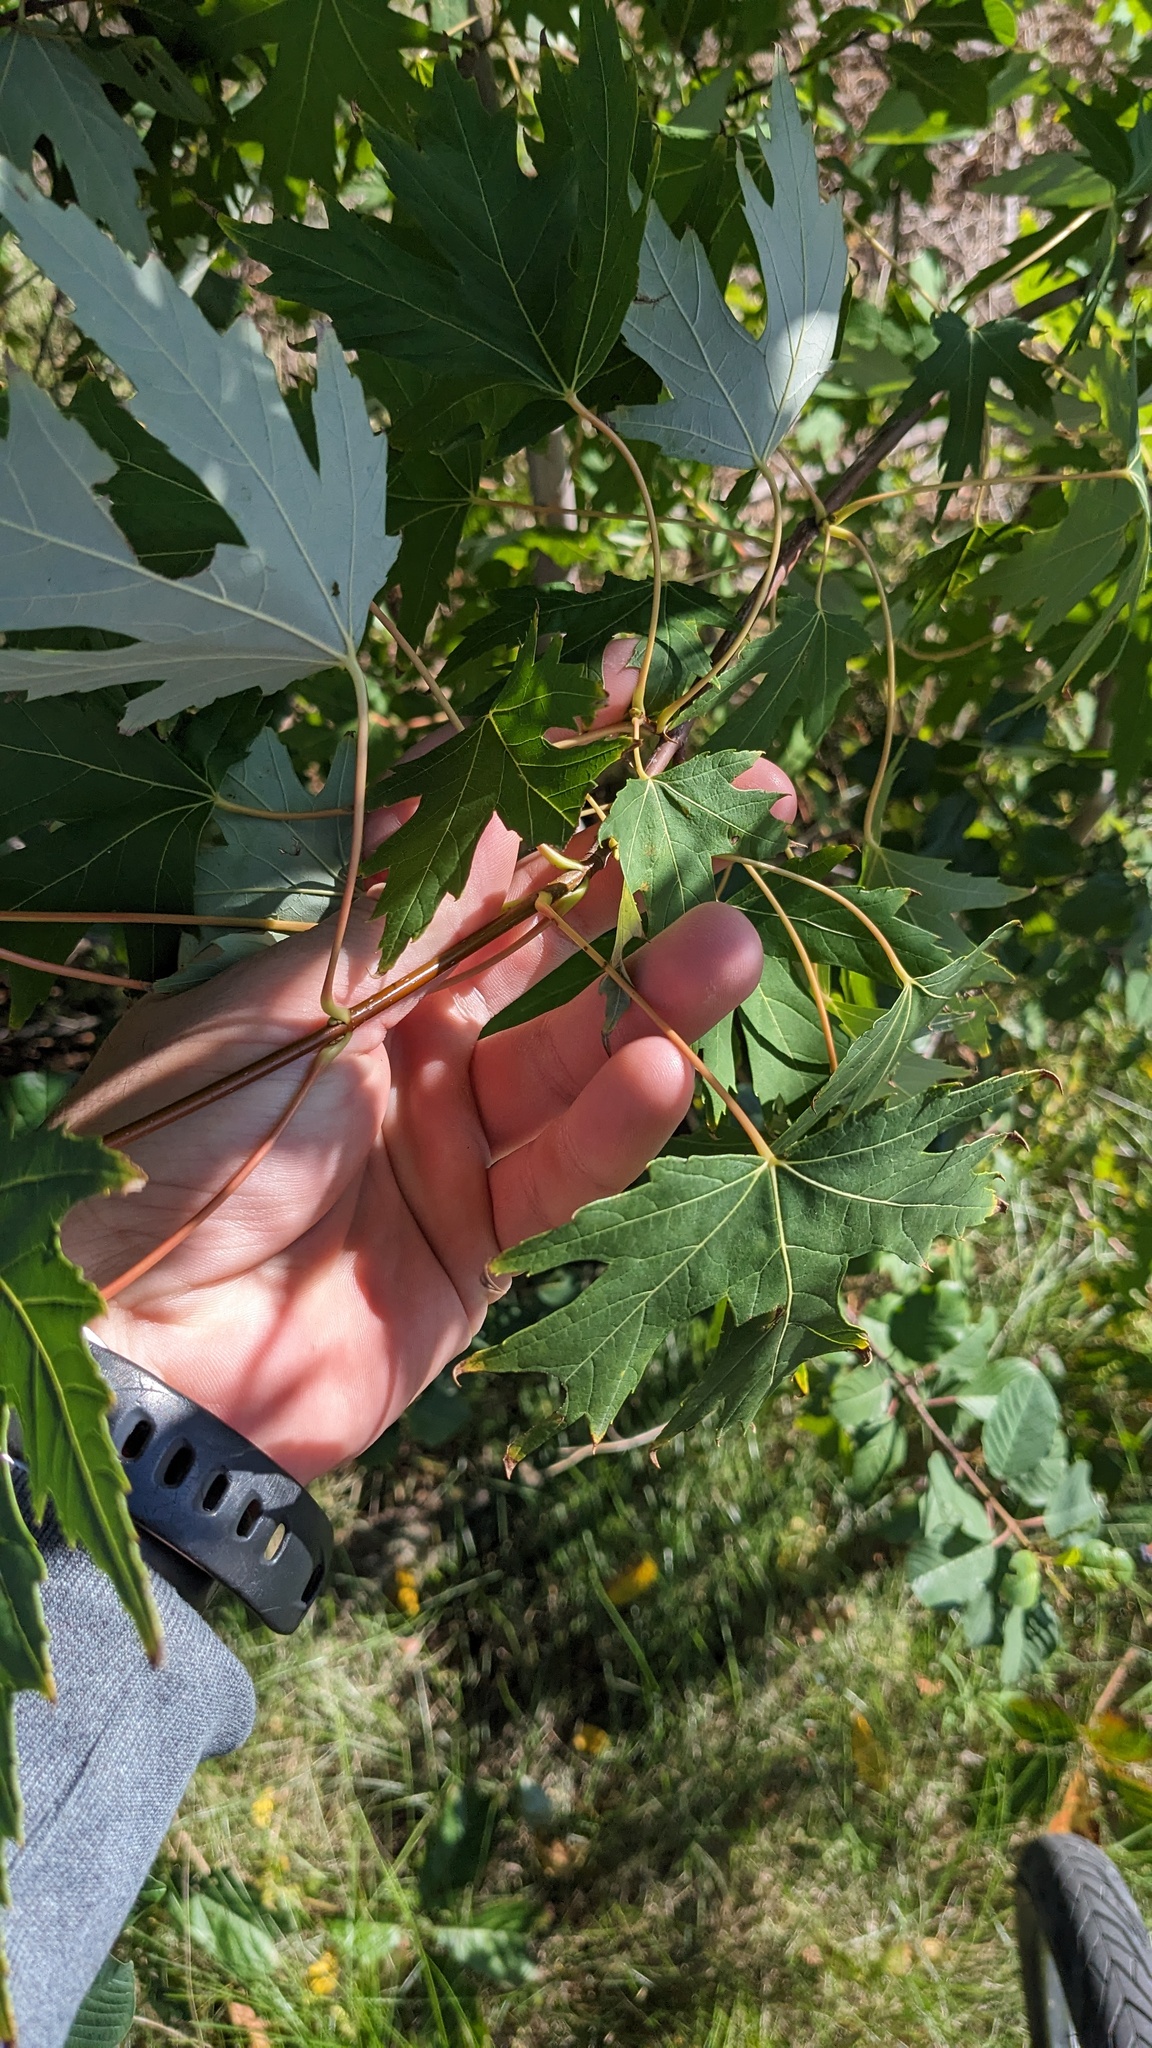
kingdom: Plantae
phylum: Tracheophyta
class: Magnoliopsida
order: Sapindales
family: Sapindaceae
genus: Acer
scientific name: Acer saccharinum
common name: Silver maple
